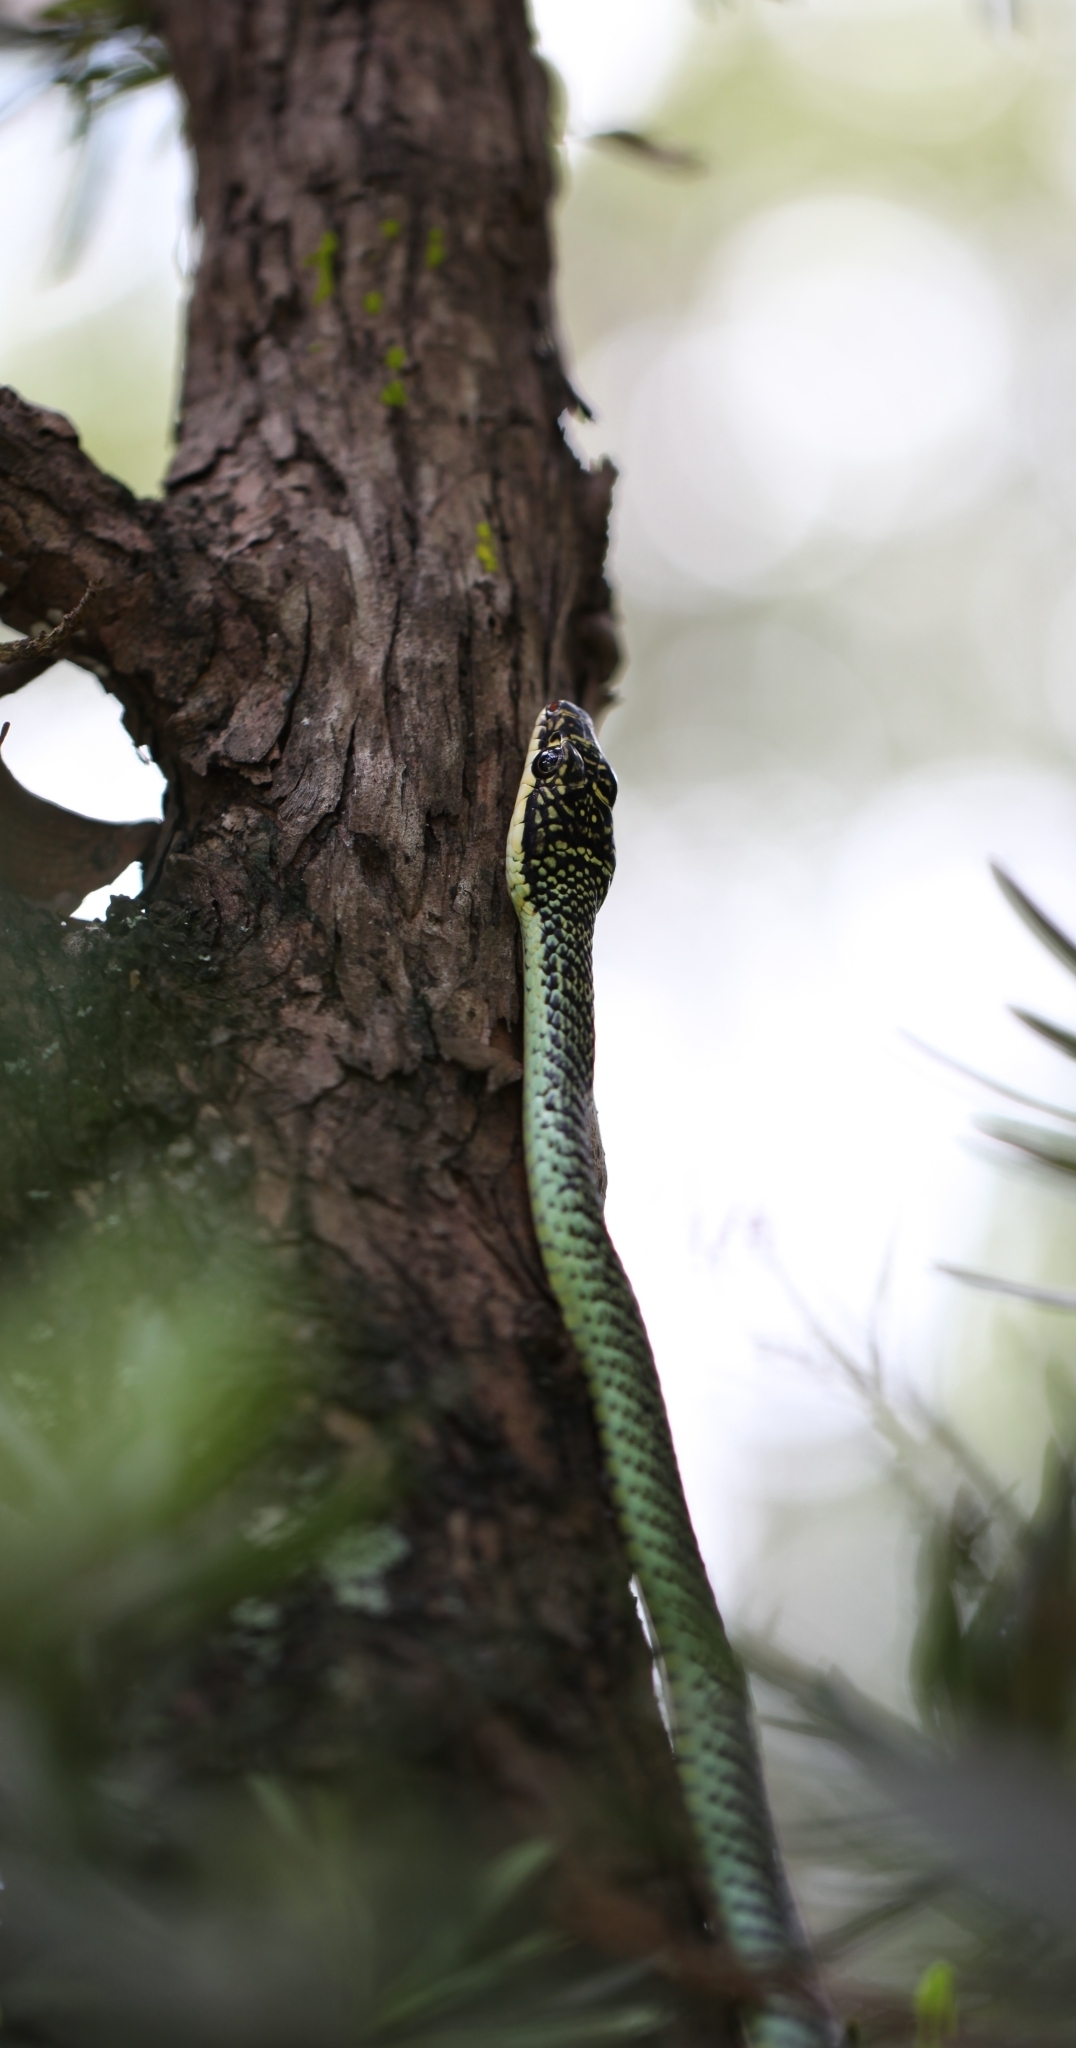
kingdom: Animalia
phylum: Chordata
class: Squamata
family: Colubridae
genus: Chrysopelea
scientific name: Chrysopelea ornata
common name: Golden flying snake
